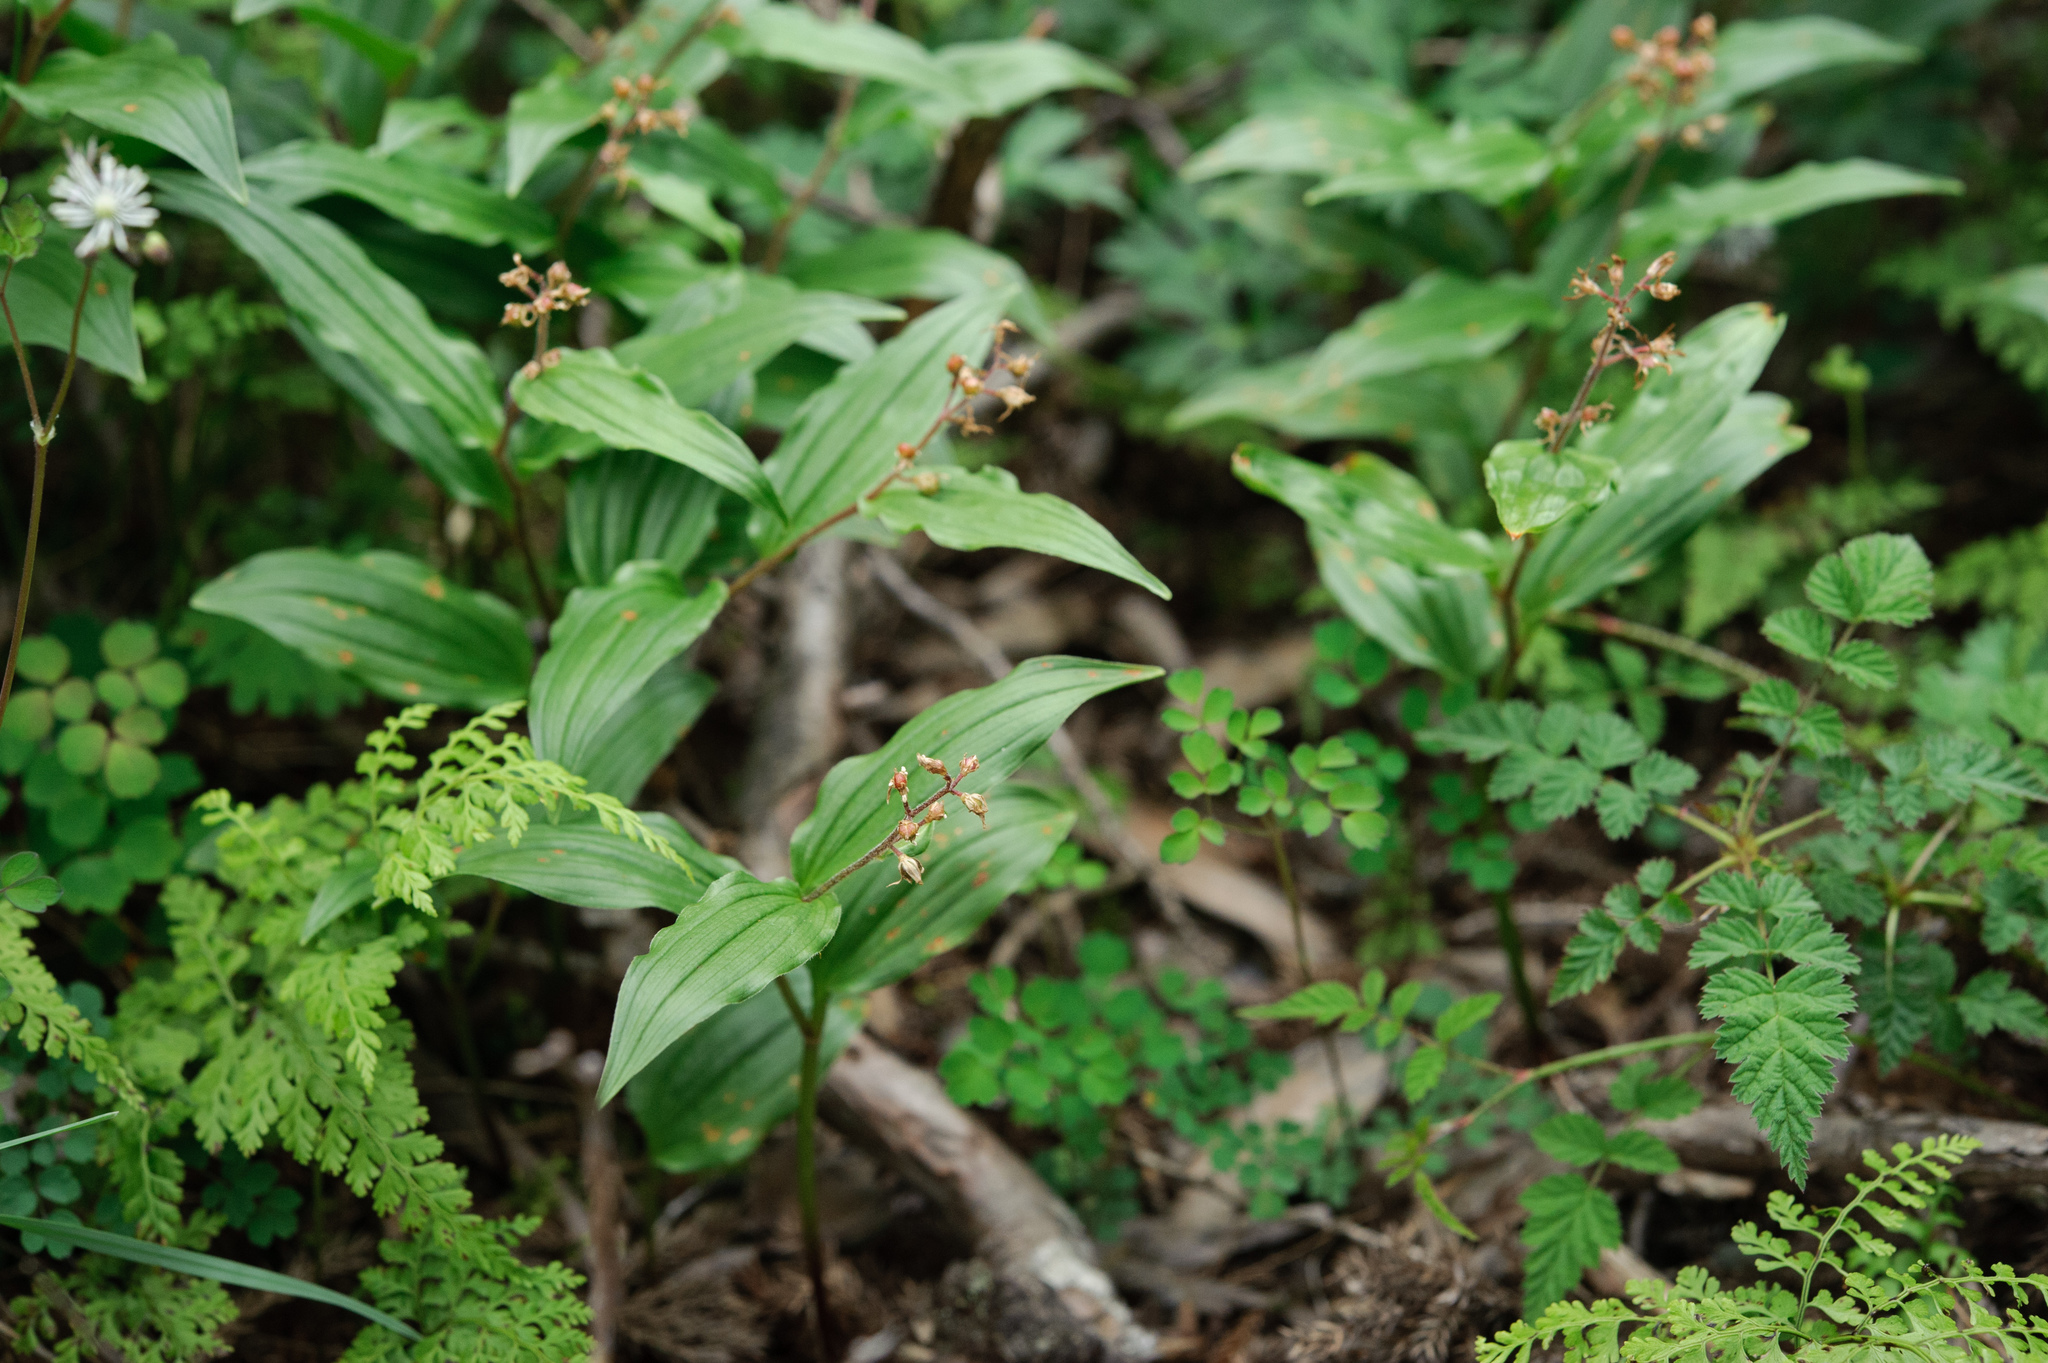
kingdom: Plantae
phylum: Tracheophyta
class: Liliopsida
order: Asparagales
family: Asparagaceae
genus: Maianthemum
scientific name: Maianthemum formosanum
